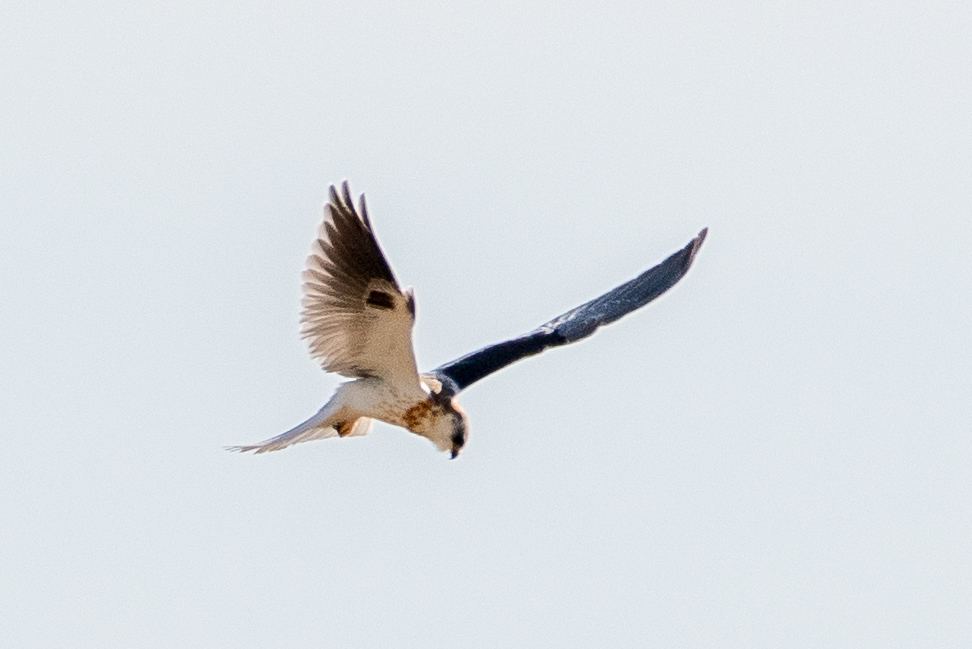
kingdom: Animalia
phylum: Chordata
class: Aves
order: Accipitriformes
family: Accipitridae
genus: Elanus
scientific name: Elanus leucurus
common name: White-tailed kite
